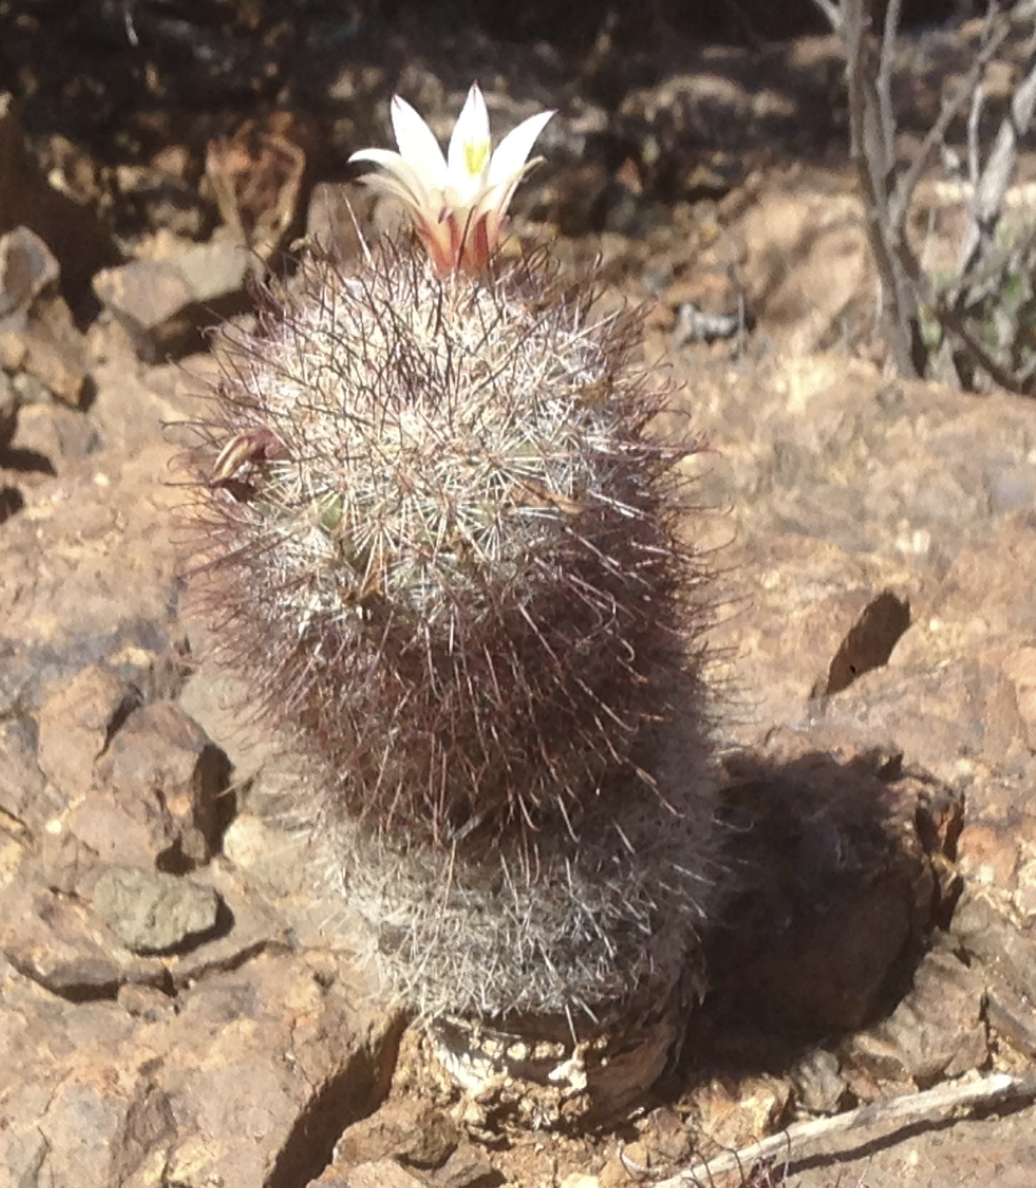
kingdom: Plantae
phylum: Tracheophyta
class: Magnoliopsida
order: Caryophyllales
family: Cactaceae
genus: Cochemiea
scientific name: Cochemiea dioica
